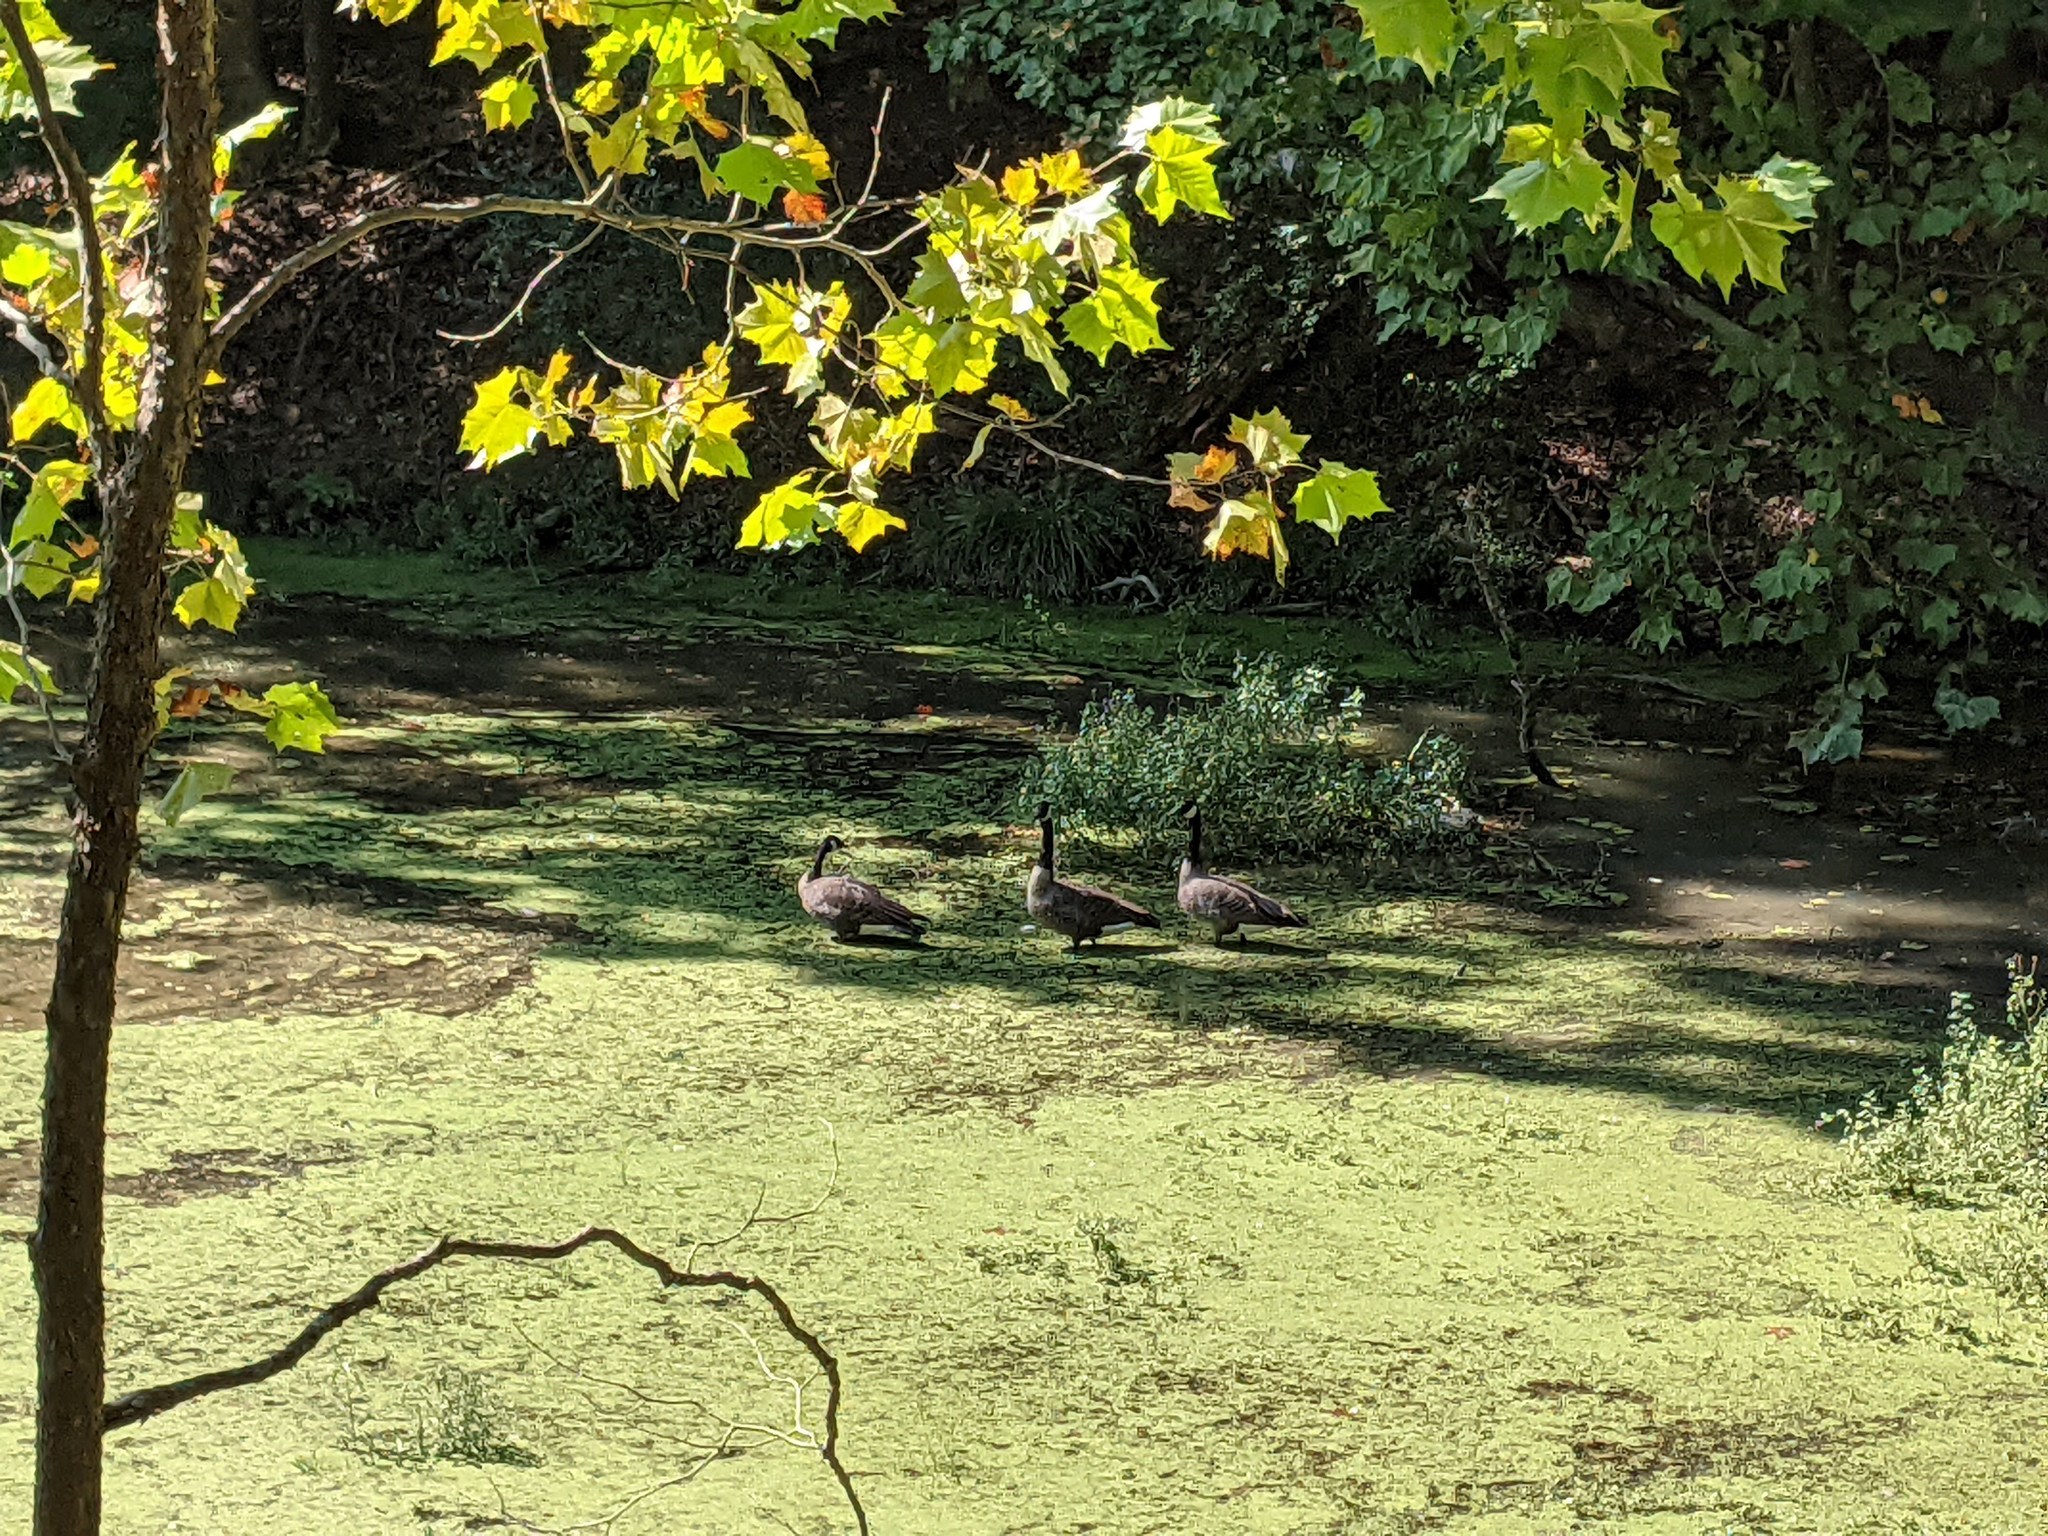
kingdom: Animalia
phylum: Chordata
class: Aves
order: Anseriformes
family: Anatidae
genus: Branta
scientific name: Branta canadensis
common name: Canada goose
